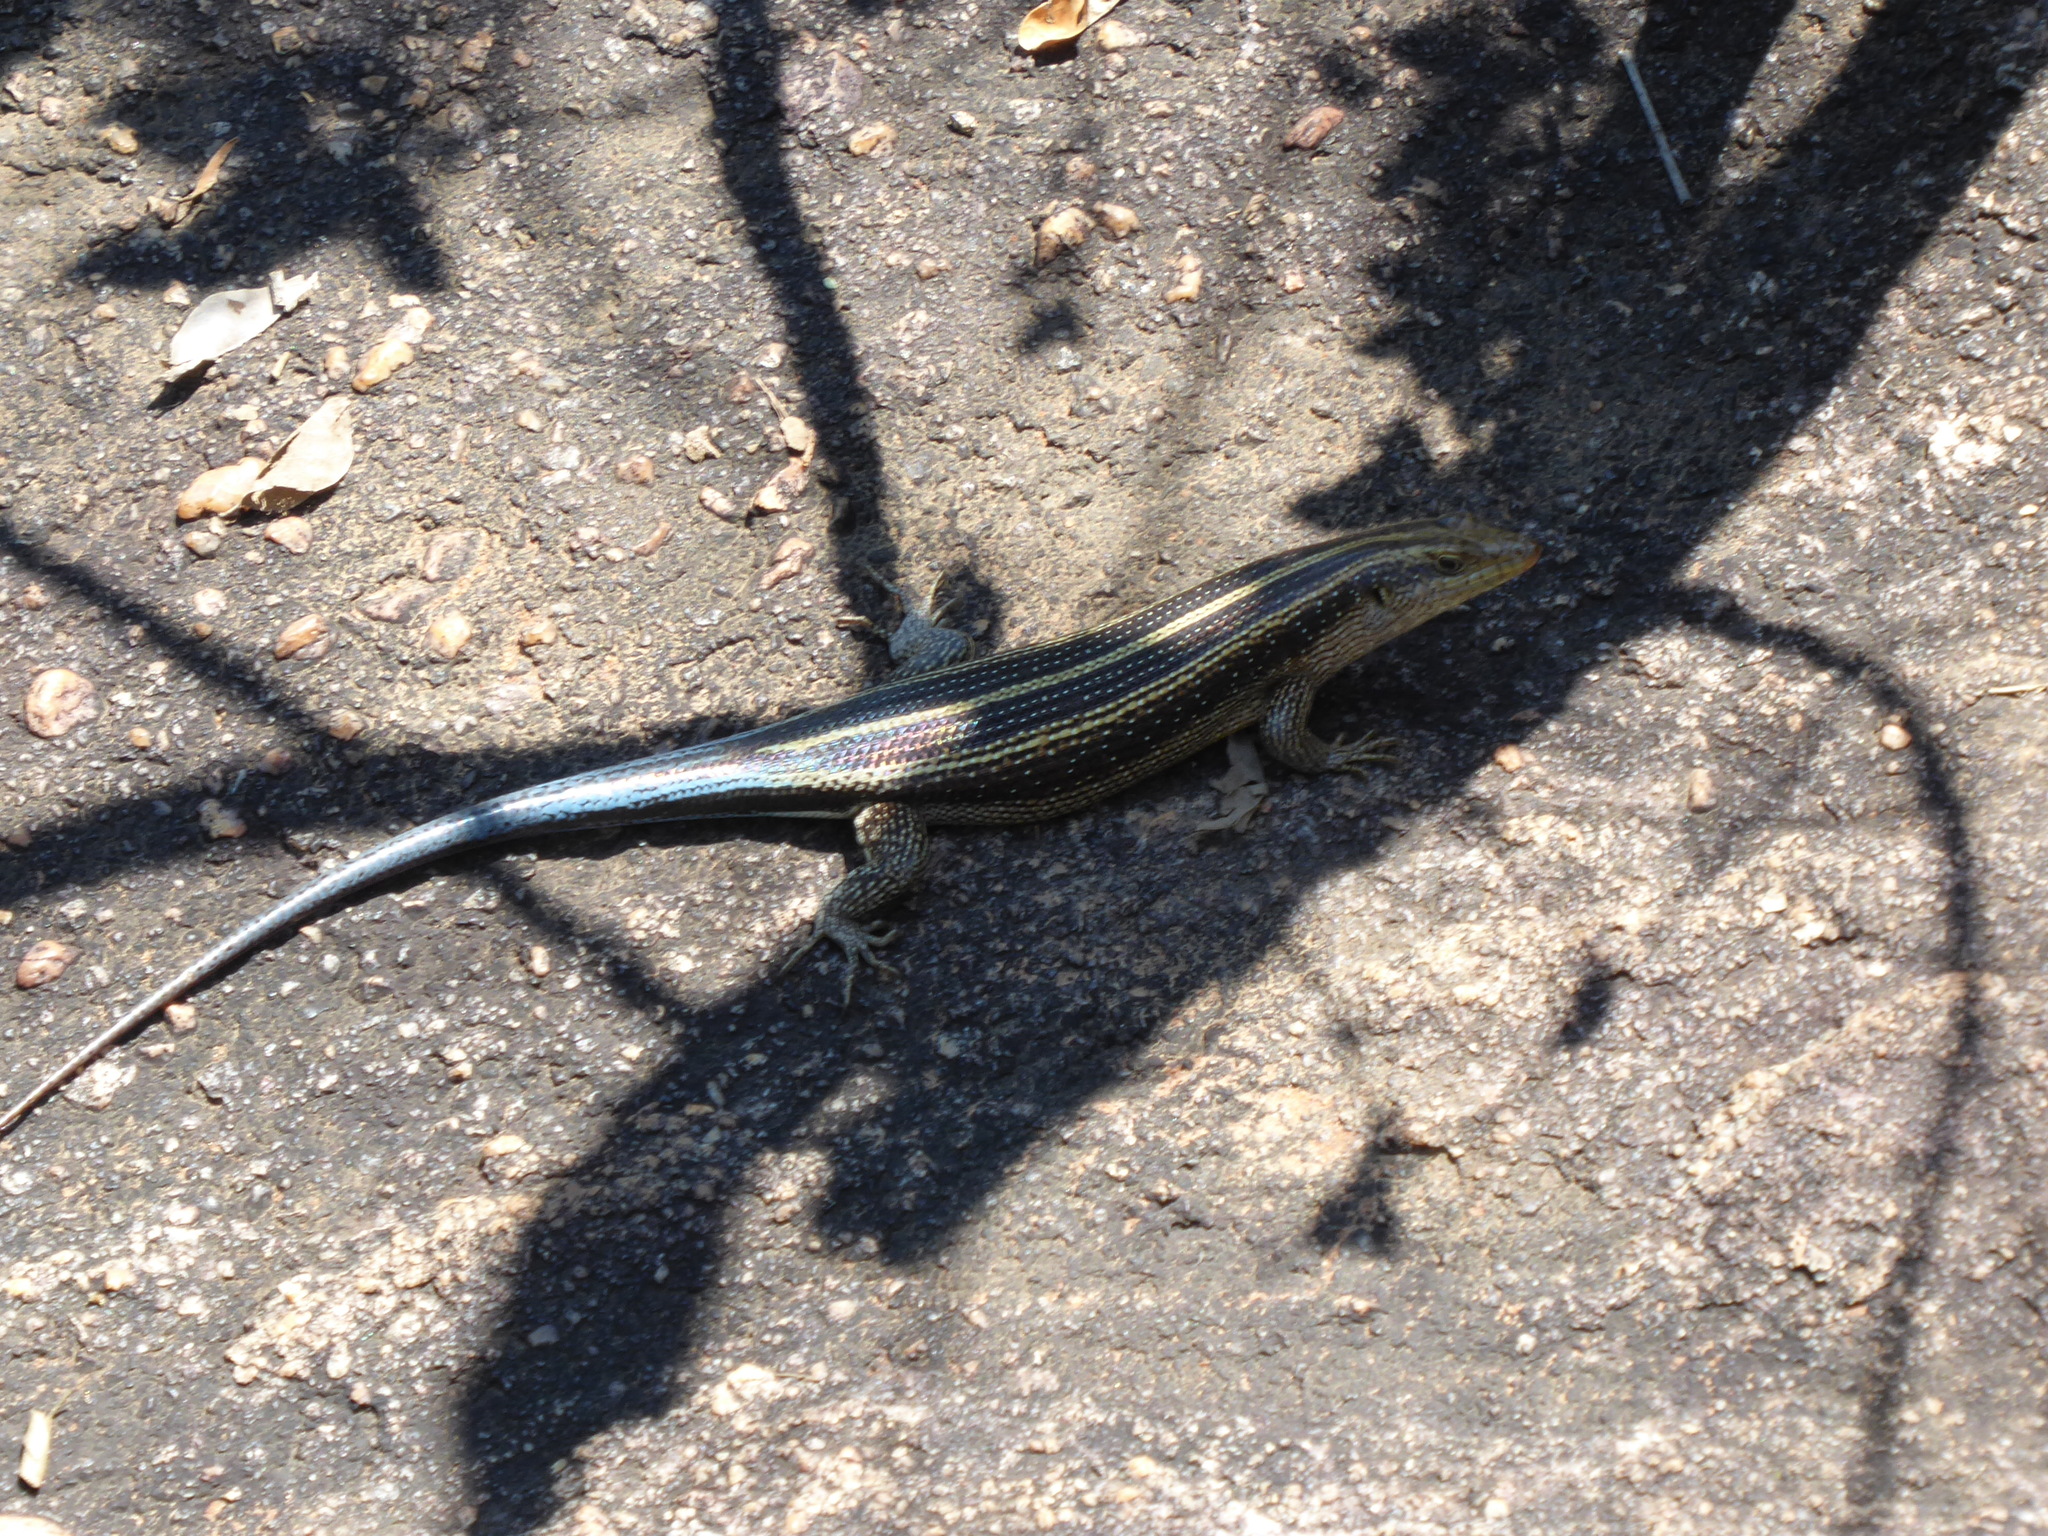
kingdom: Animalia
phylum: Chordata
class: Squamata
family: Scincidae
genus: Trachylepis
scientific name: Trachylepis margaritifera
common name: Rainbow skink
